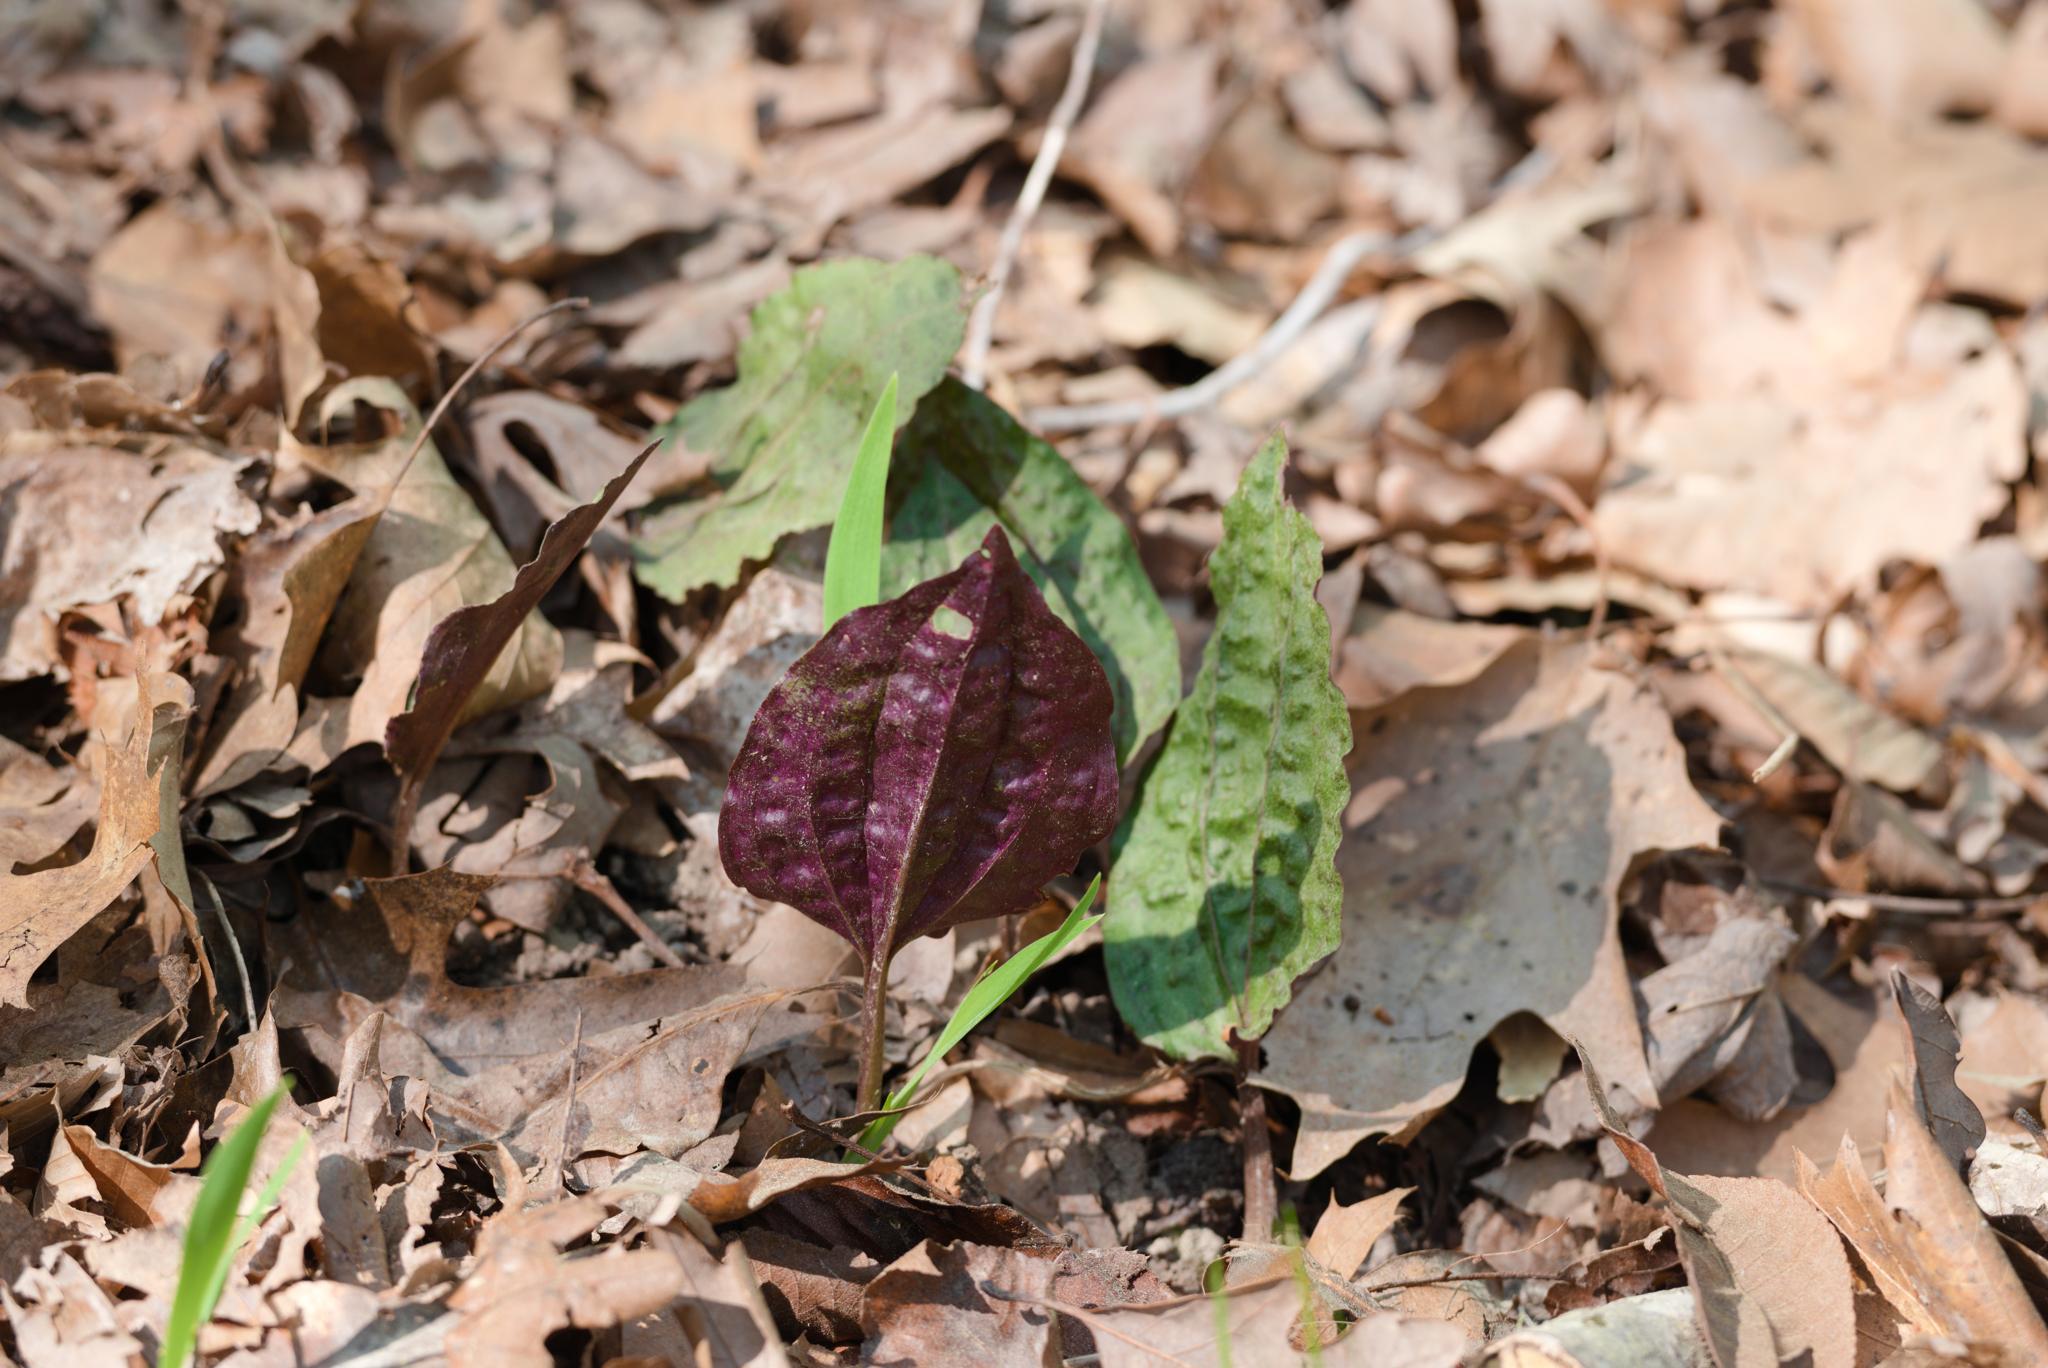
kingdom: Plantae
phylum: Tracheophyta
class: Liliopsida
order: Asparagales
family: Orchidaceae
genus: Tipularia
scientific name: Tipularia discolor
